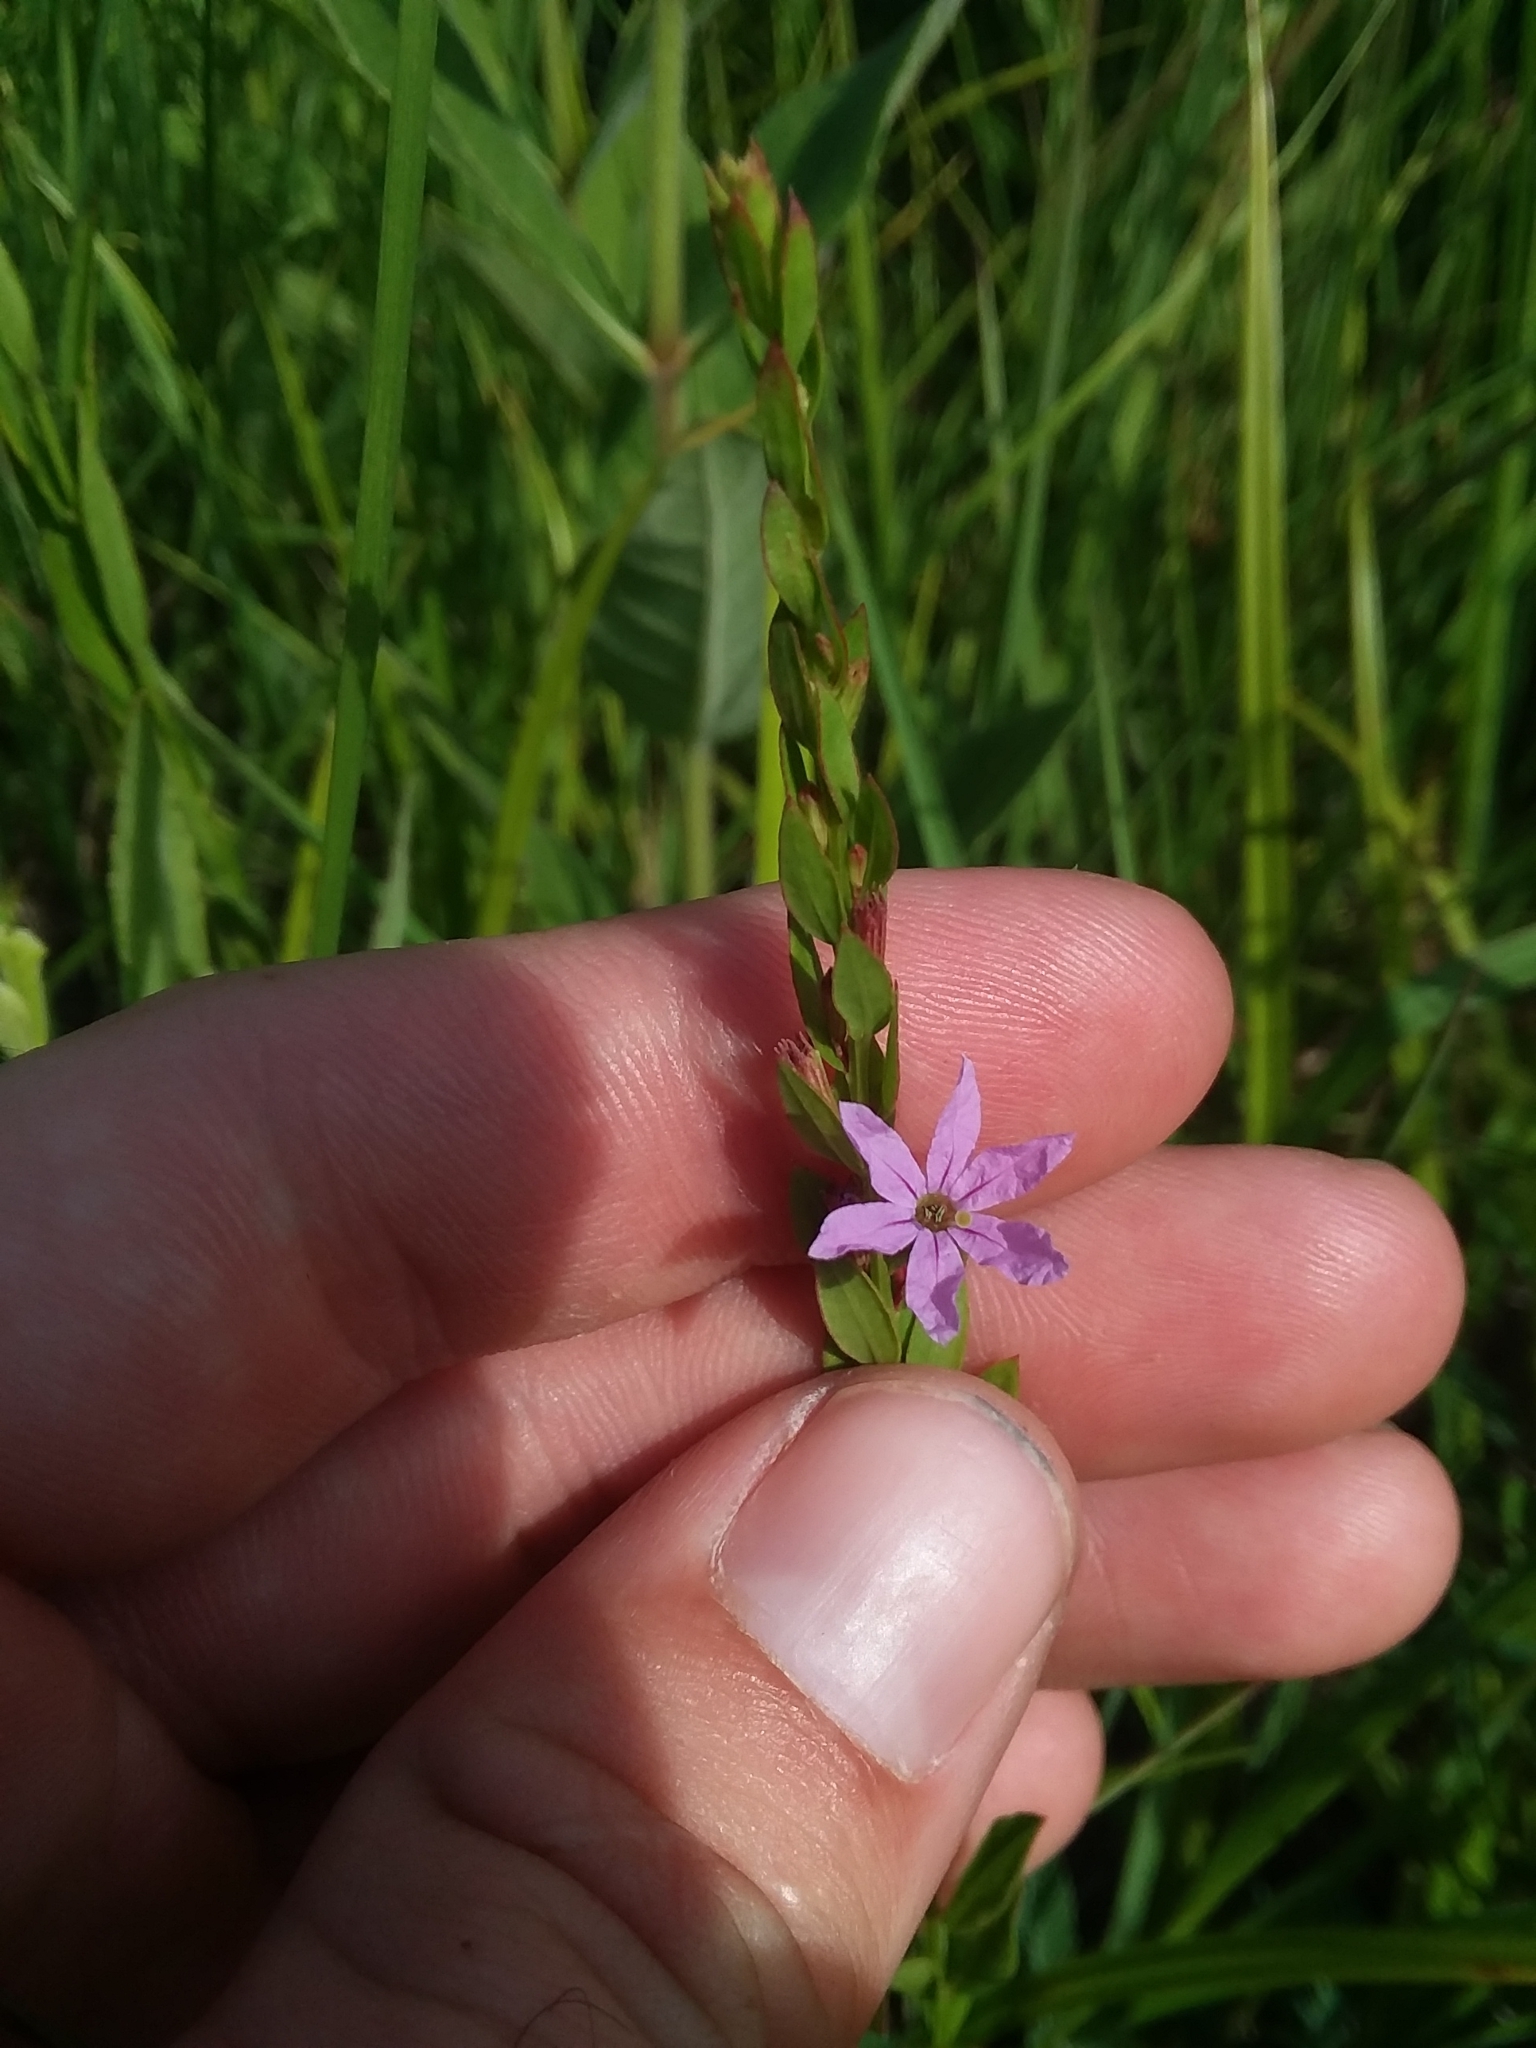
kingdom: Plantae
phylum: Tracheophyta
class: Magnoliopsida
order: Myrtales
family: Lythraceae
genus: Lythrum
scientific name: Lythrum alatum
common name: Winged loosestrife
